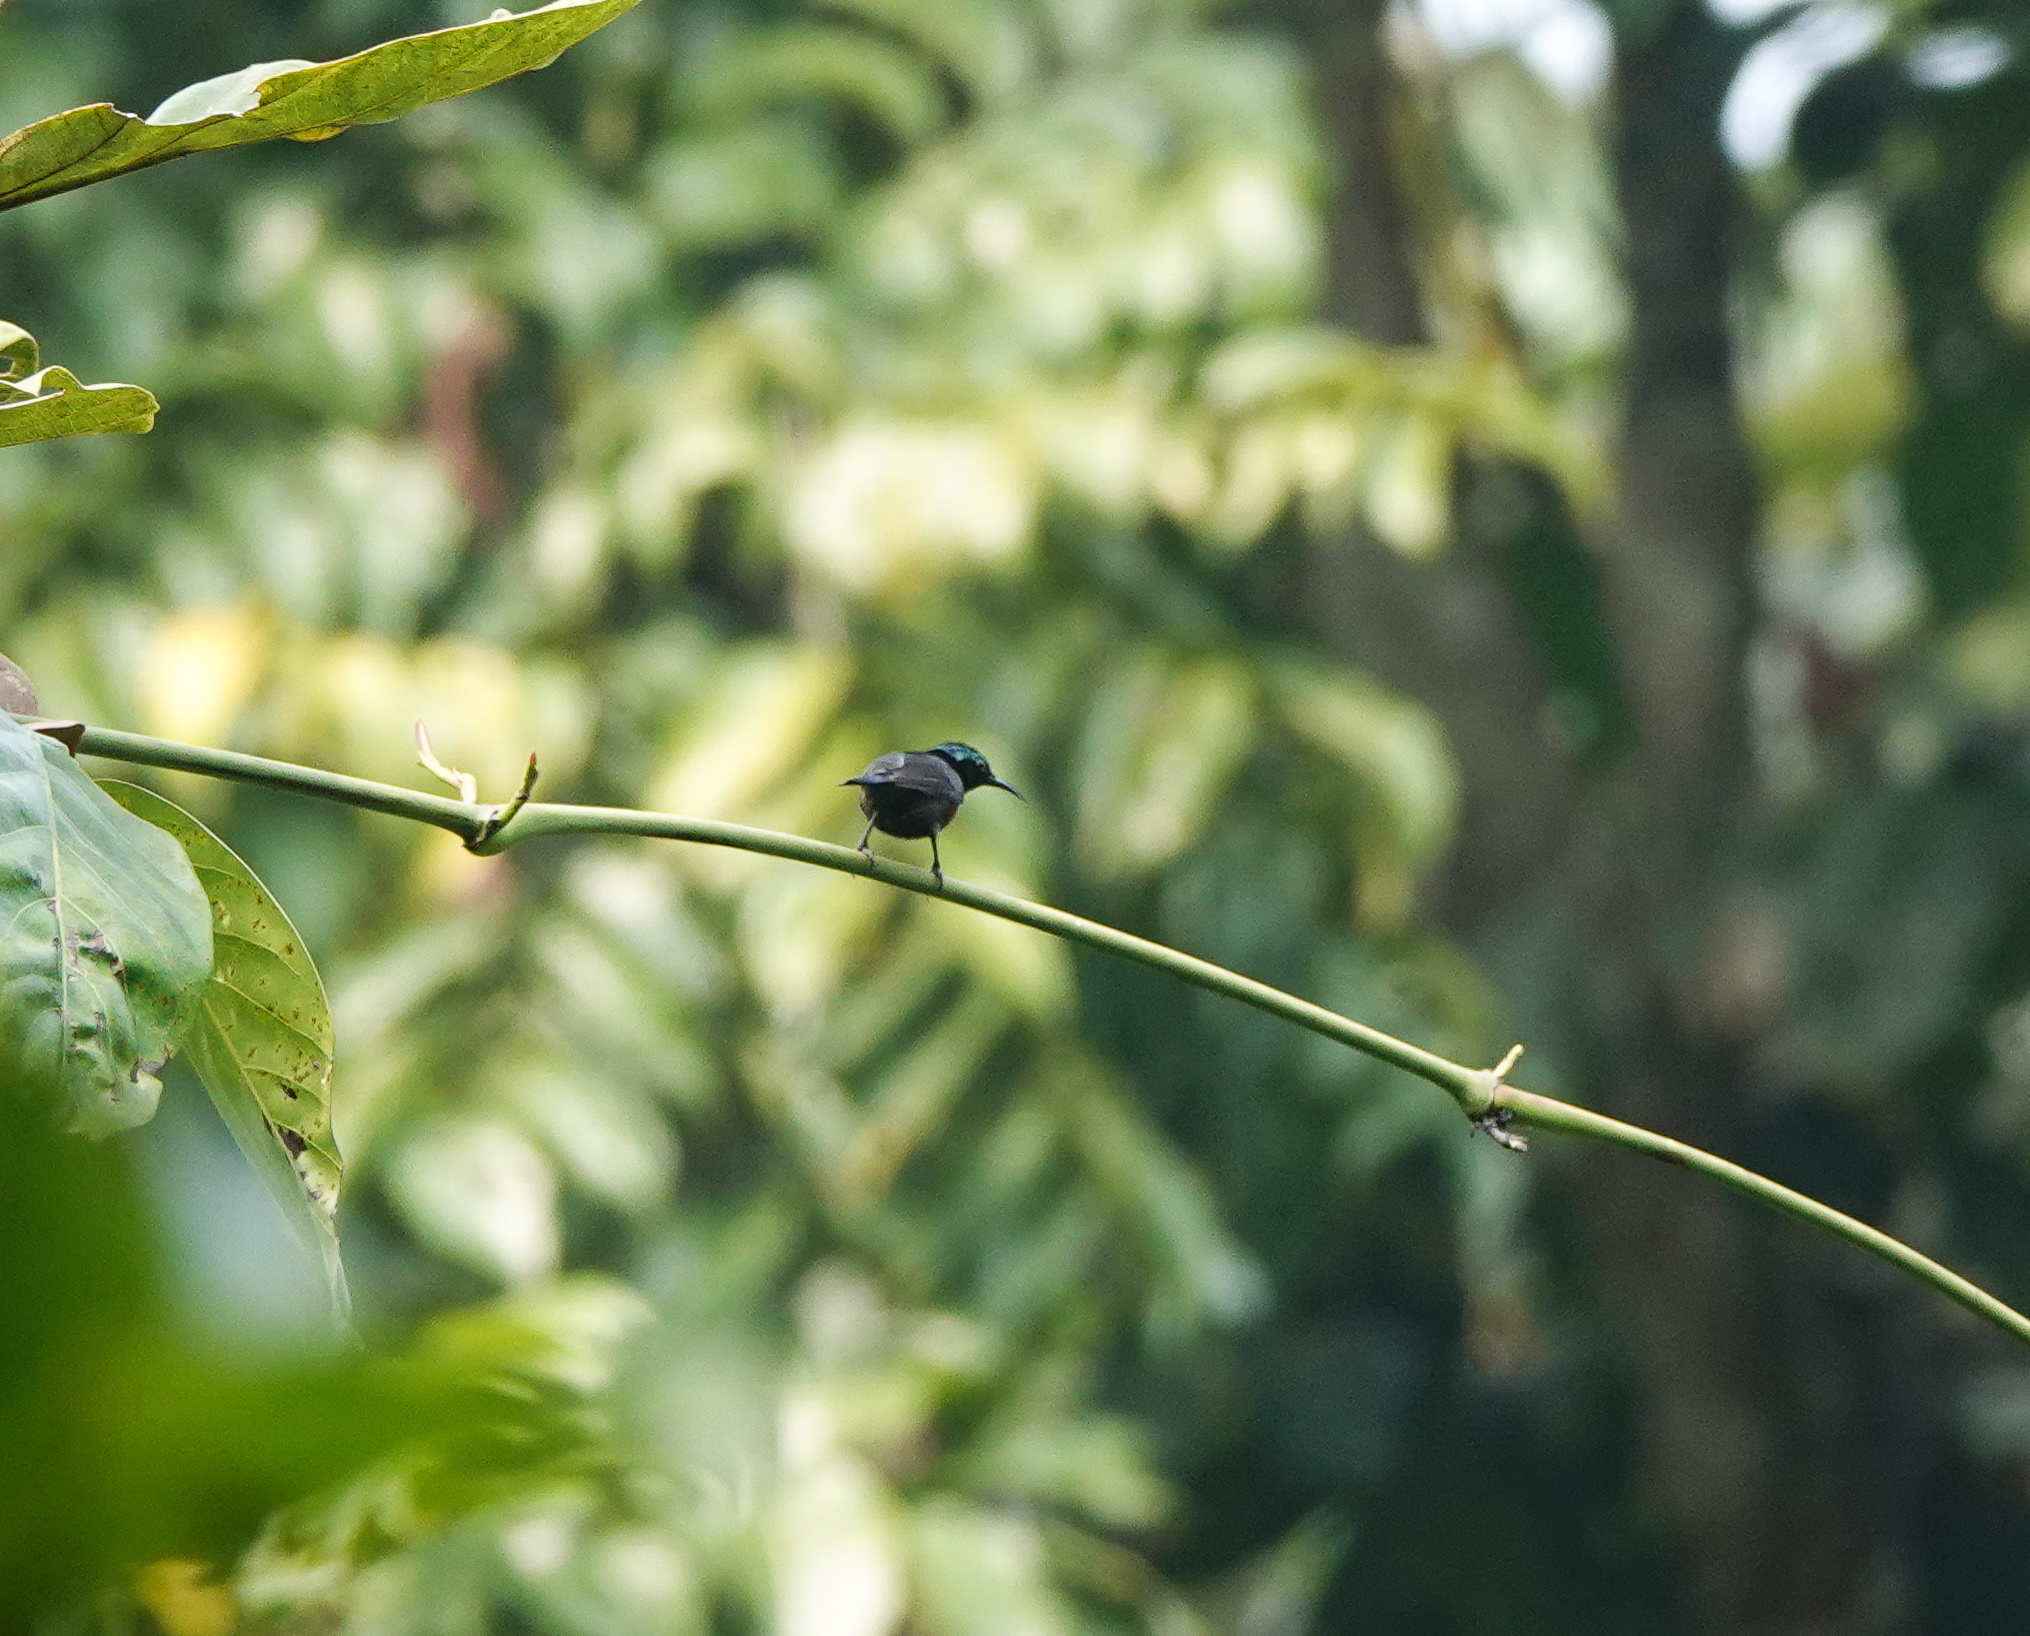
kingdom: Animalia
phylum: Chordata
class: Aves
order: Passeriformes
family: Nectariniidae
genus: Leptocoma
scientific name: Leptocoma brasiliana
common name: Van hasselt's sunbird
